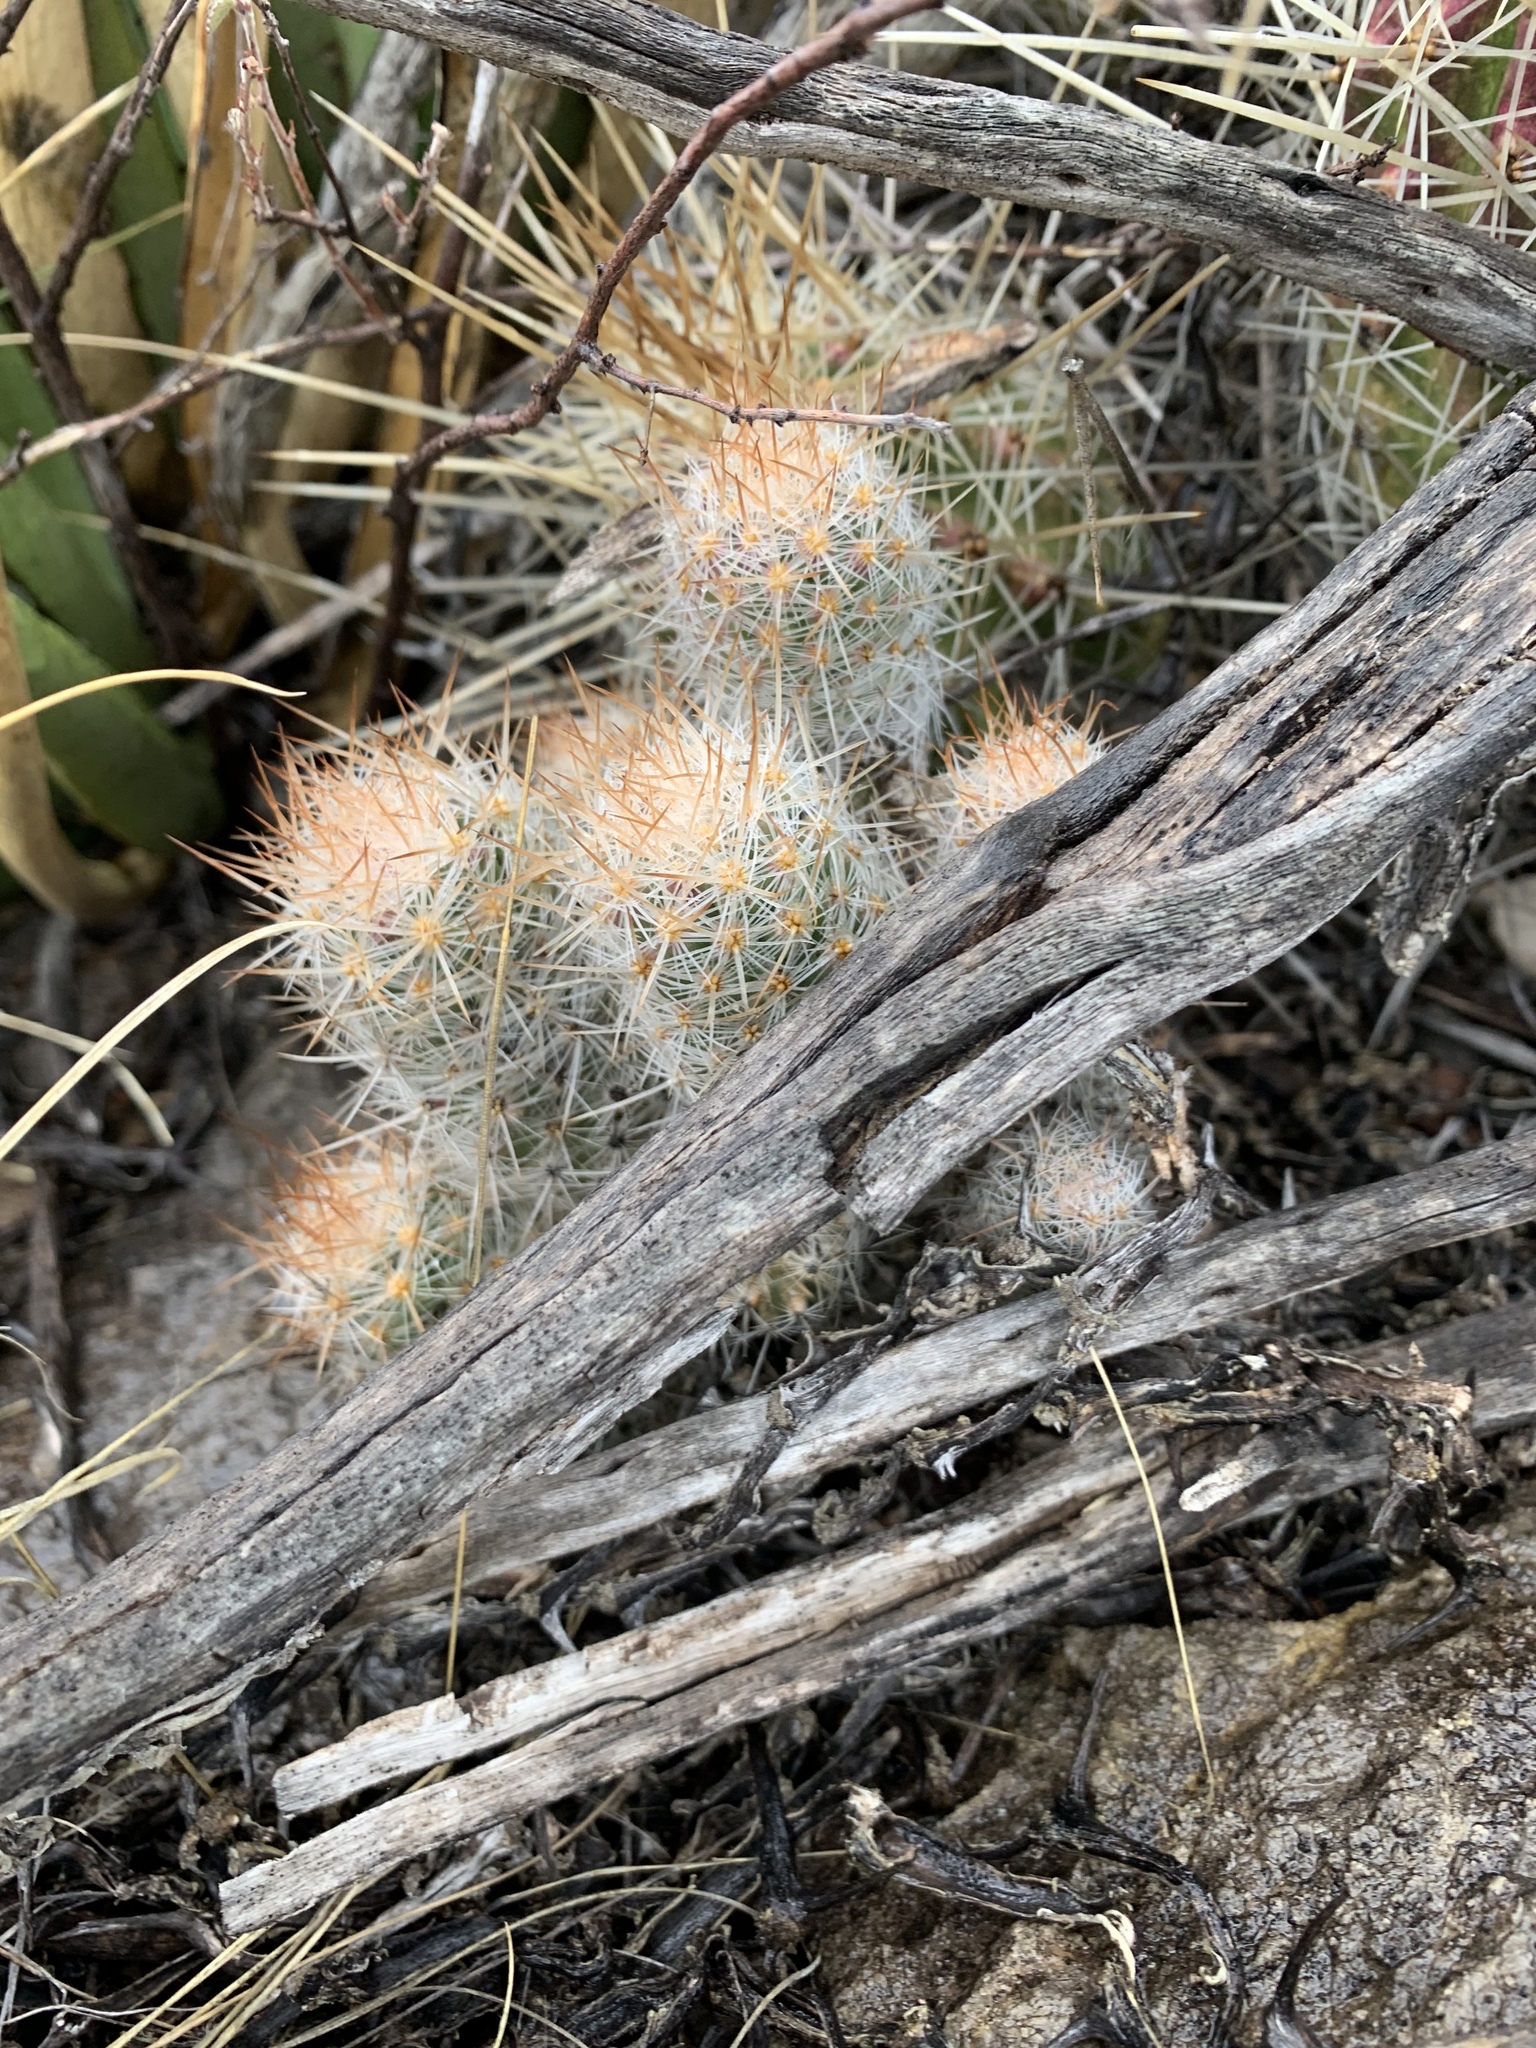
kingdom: Plantae
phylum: Tracheophyta
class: Magnoliopsida
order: Caryophyllales
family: Cactaceae
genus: Pelecyphora
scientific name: Pelecyphora tuberculosa
